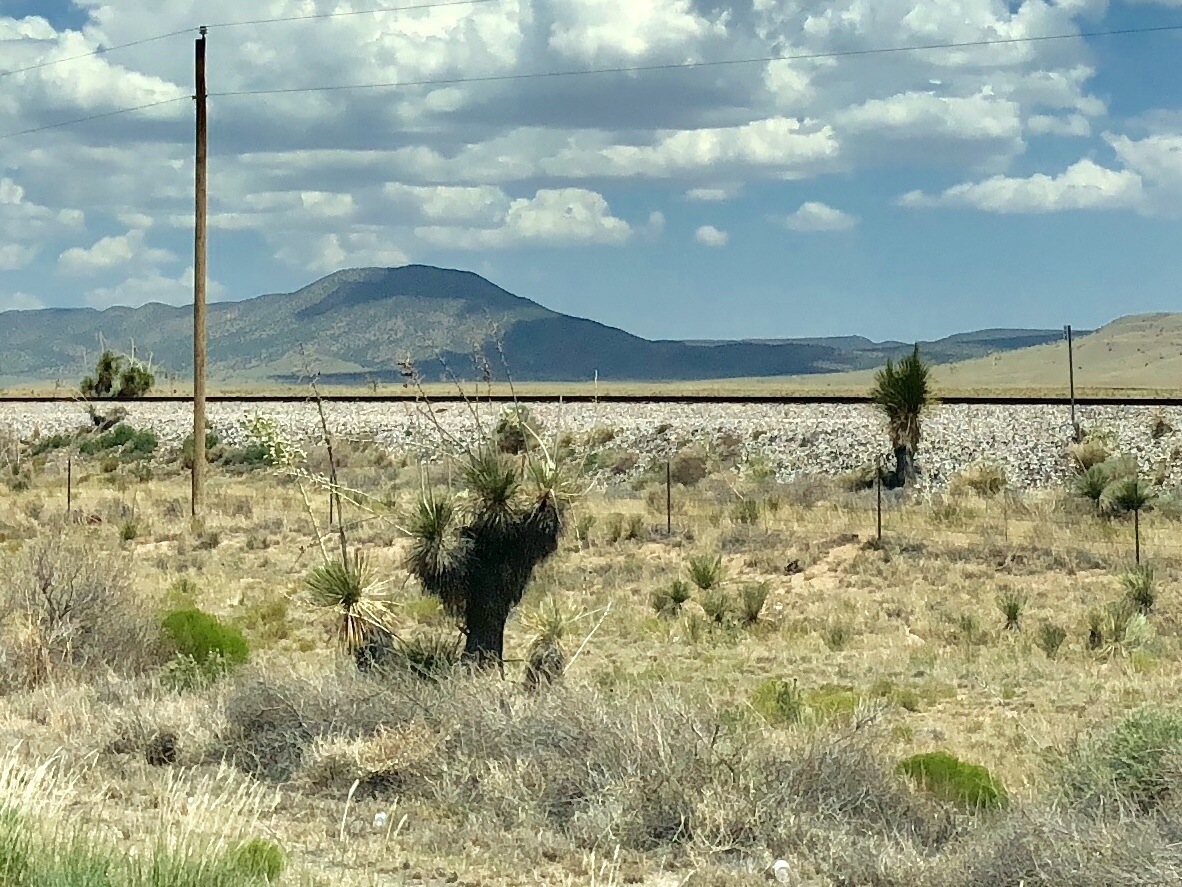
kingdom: Plantae
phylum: Tracheophyta
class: Liliopsida
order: Asparagales
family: Asparagaceae
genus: Yucca
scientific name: Yucca elata
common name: Palmella
